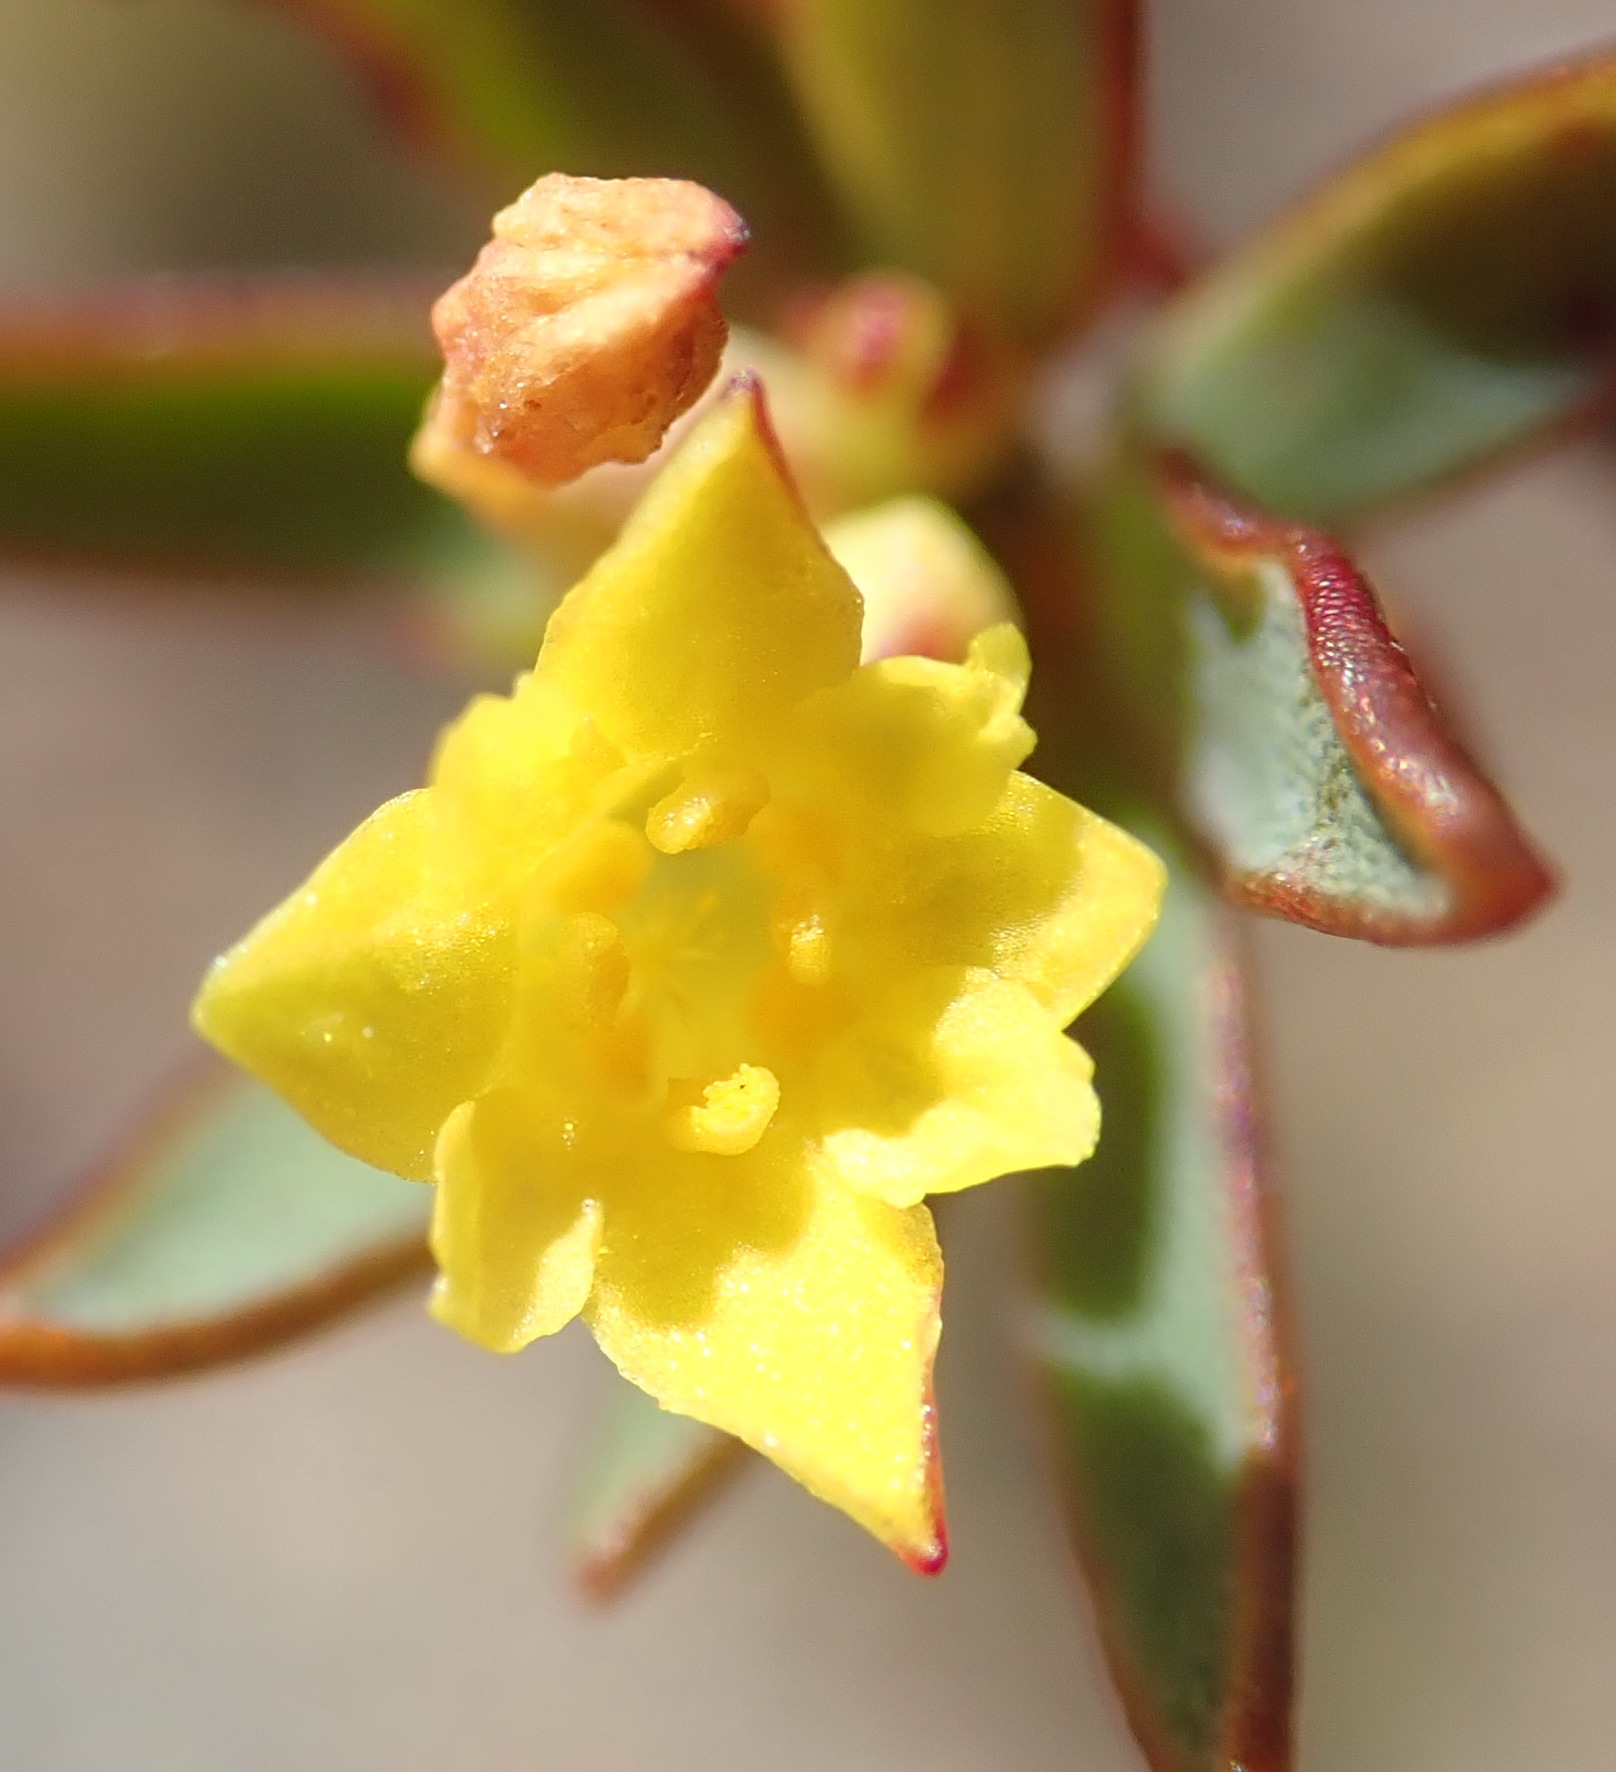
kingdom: Plantae
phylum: Tracheophyta
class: Magnoliopsida
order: Malvales
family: Thymelaeaceae
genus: Gnidia
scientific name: Gnidia juniperifolia
